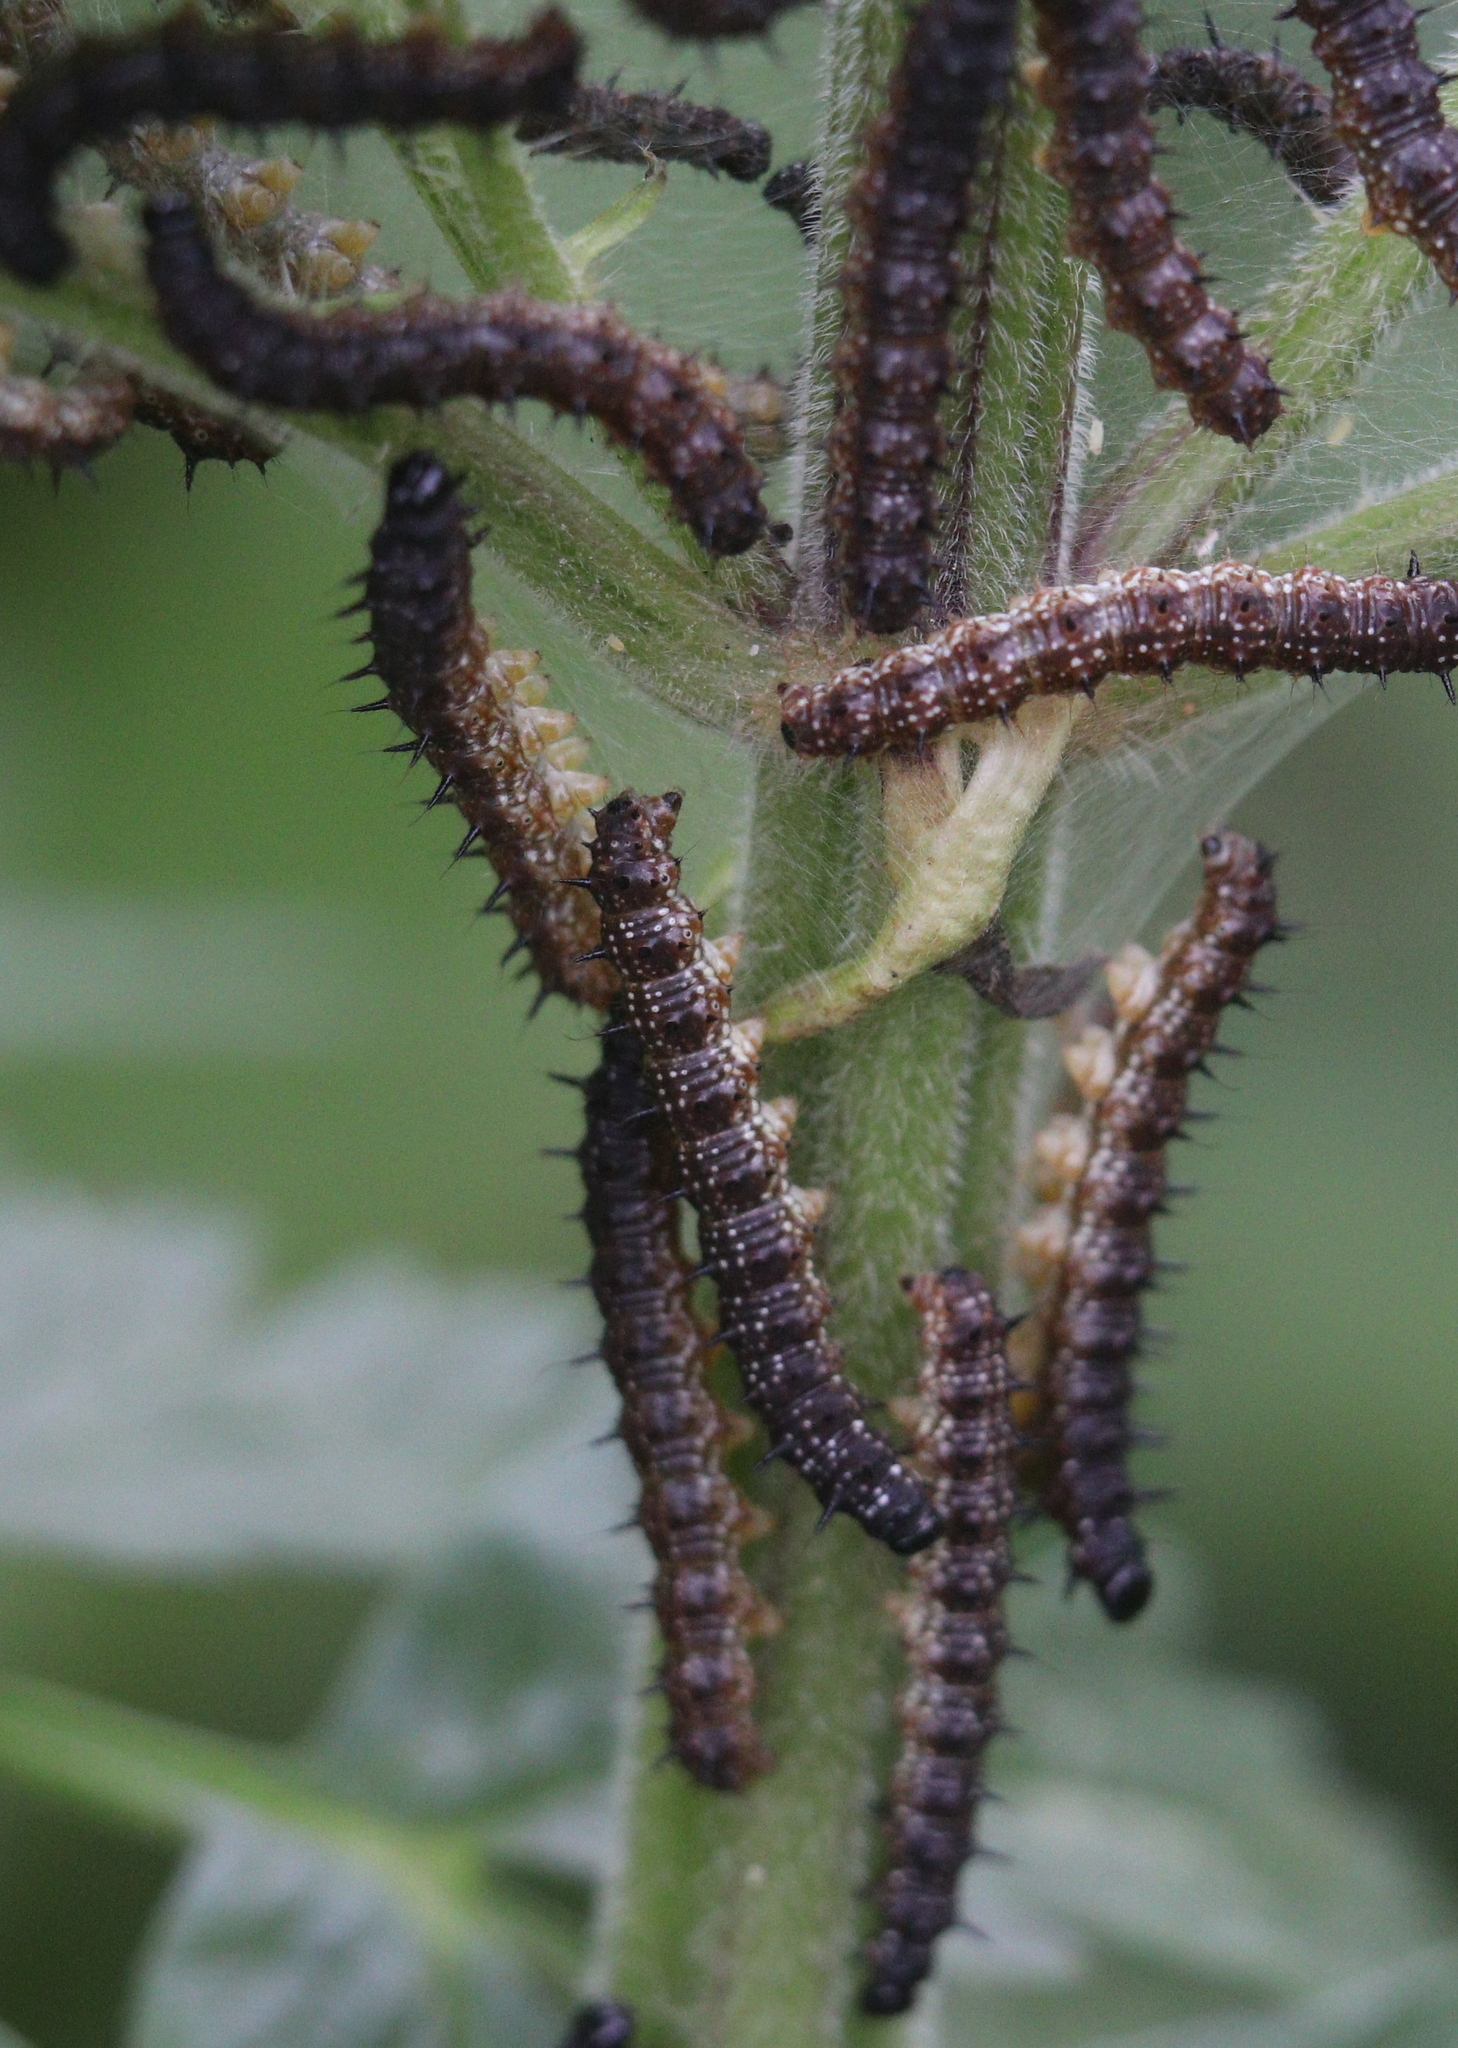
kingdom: Animalia
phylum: Arthropoda
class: Insecta
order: Lepidoptera
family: Nymphalidae
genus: Aglais
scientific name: Aglais io
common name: Peacock
